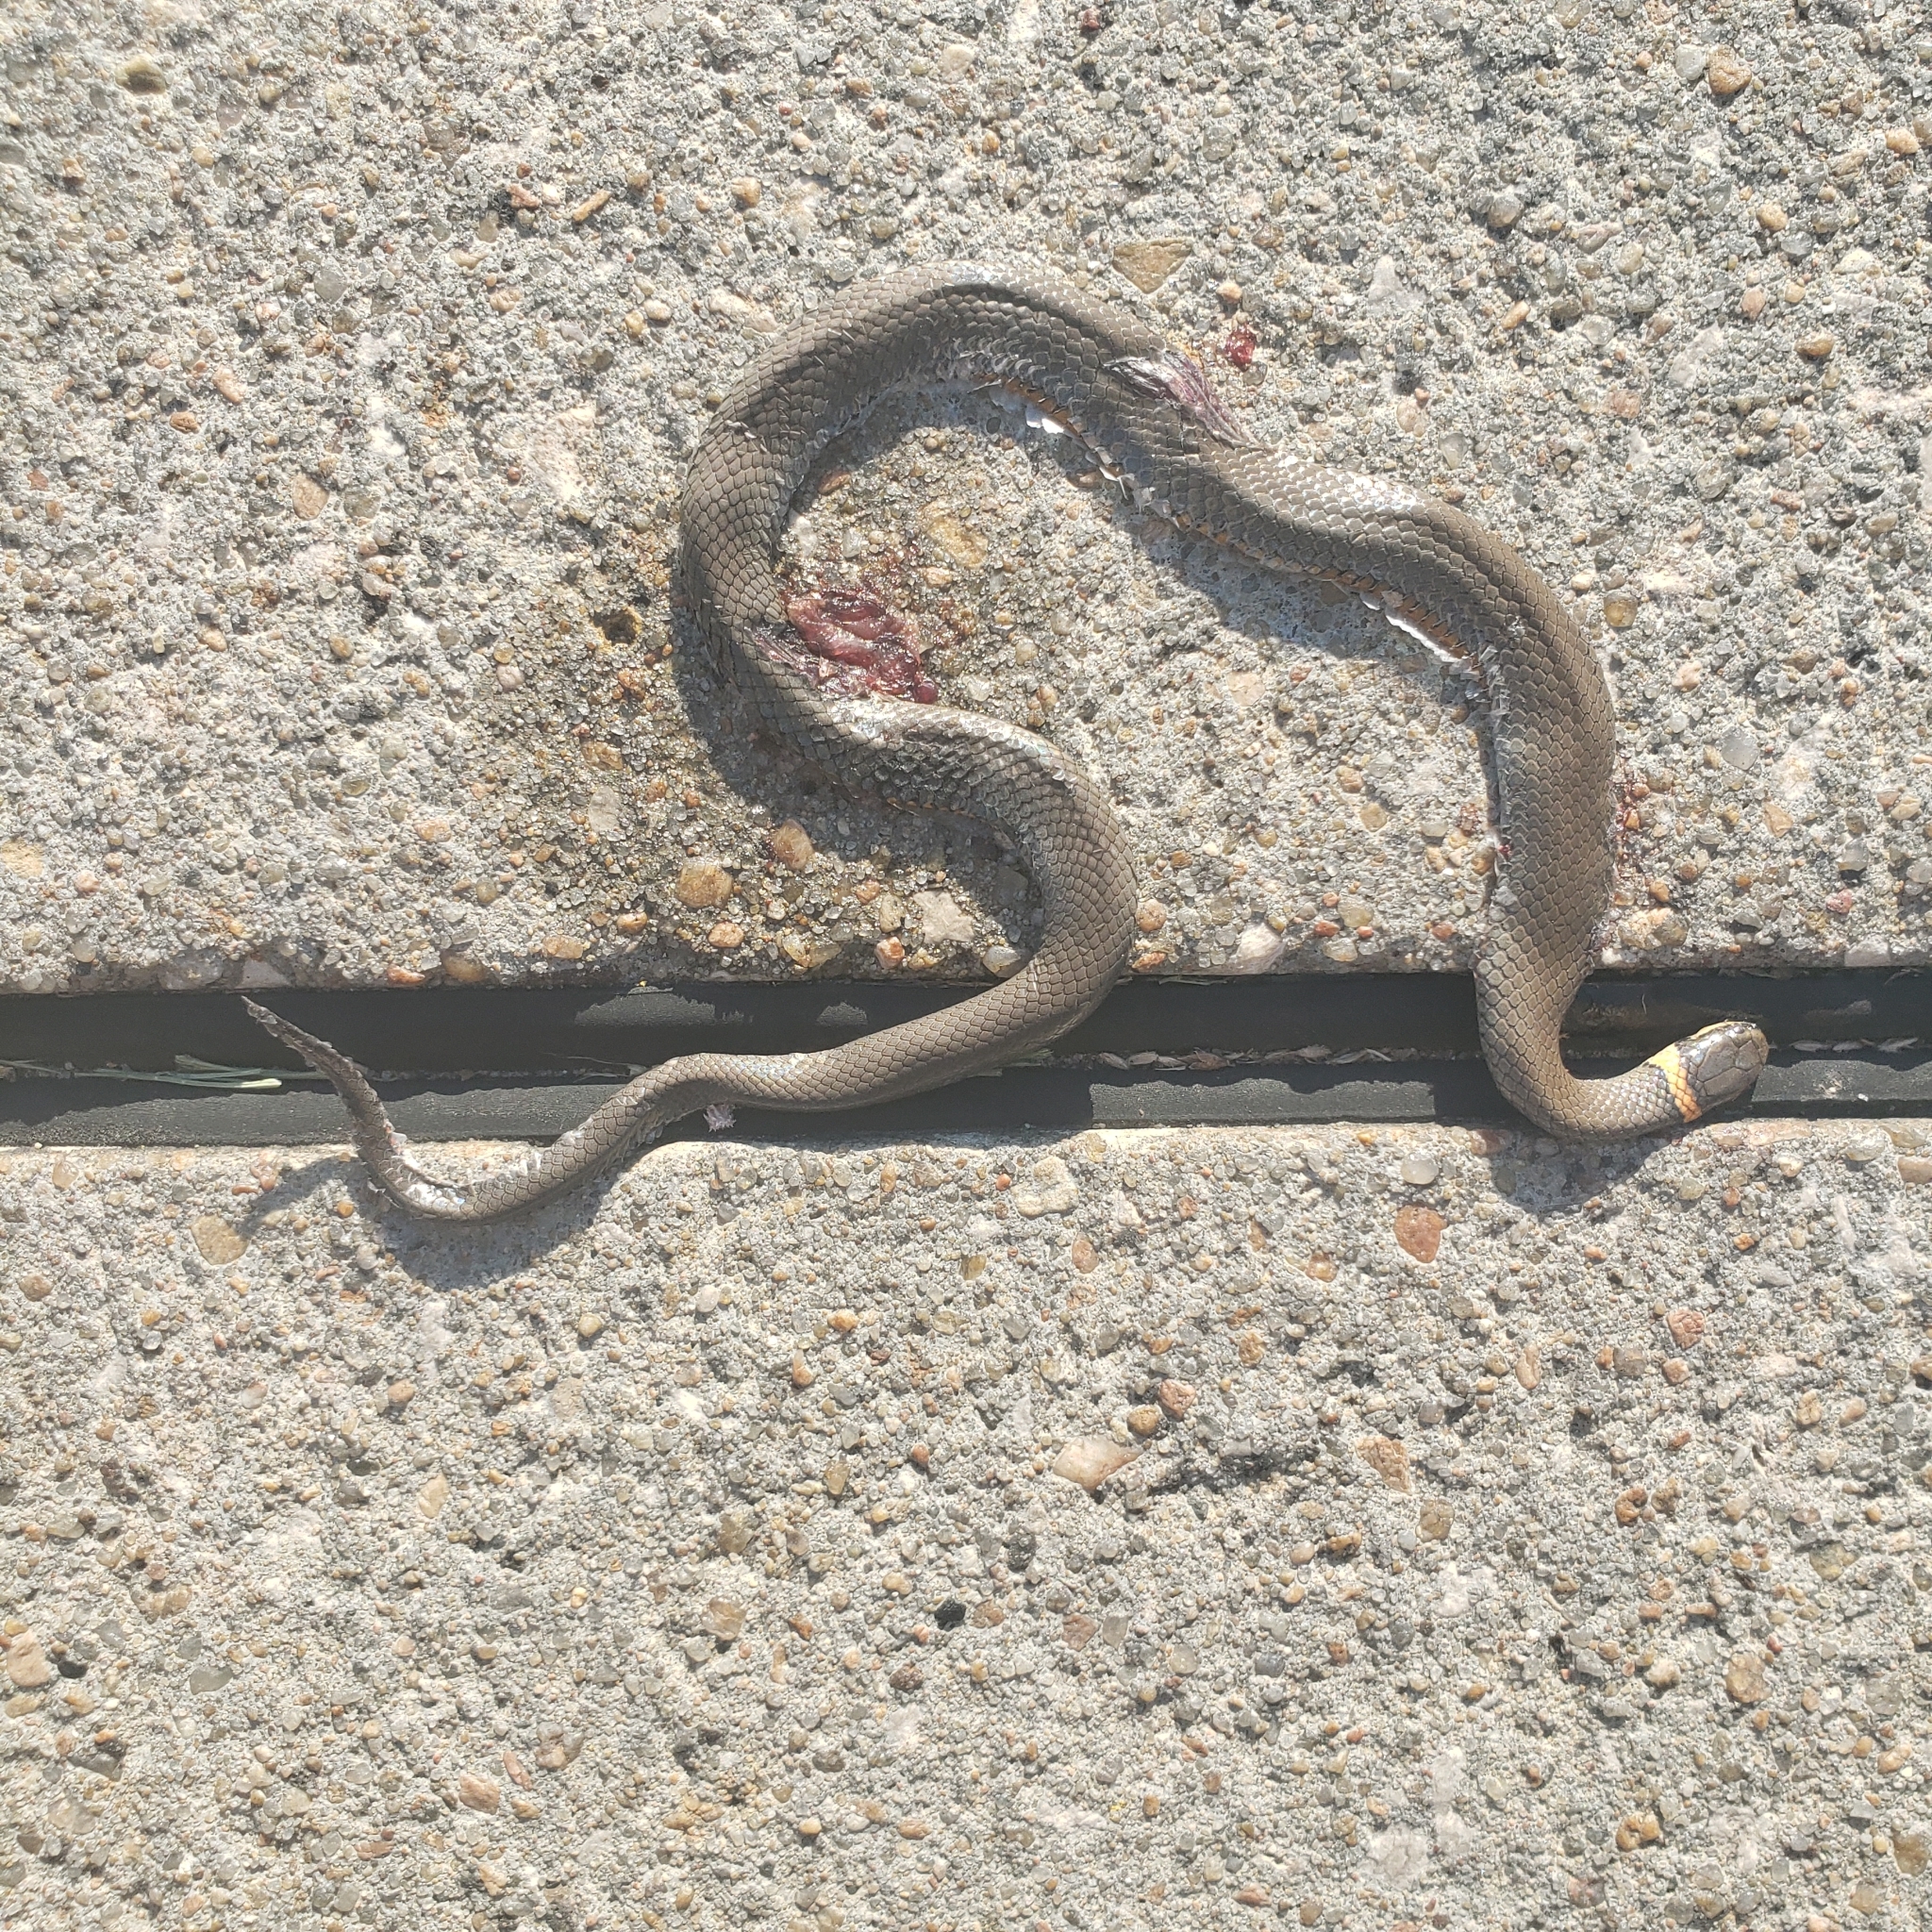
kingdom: Animalia
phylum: Chordata
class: Squamata
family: Colubridae
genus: Diadophis
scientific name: Diadophis punctatus
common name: Ringneck snake
